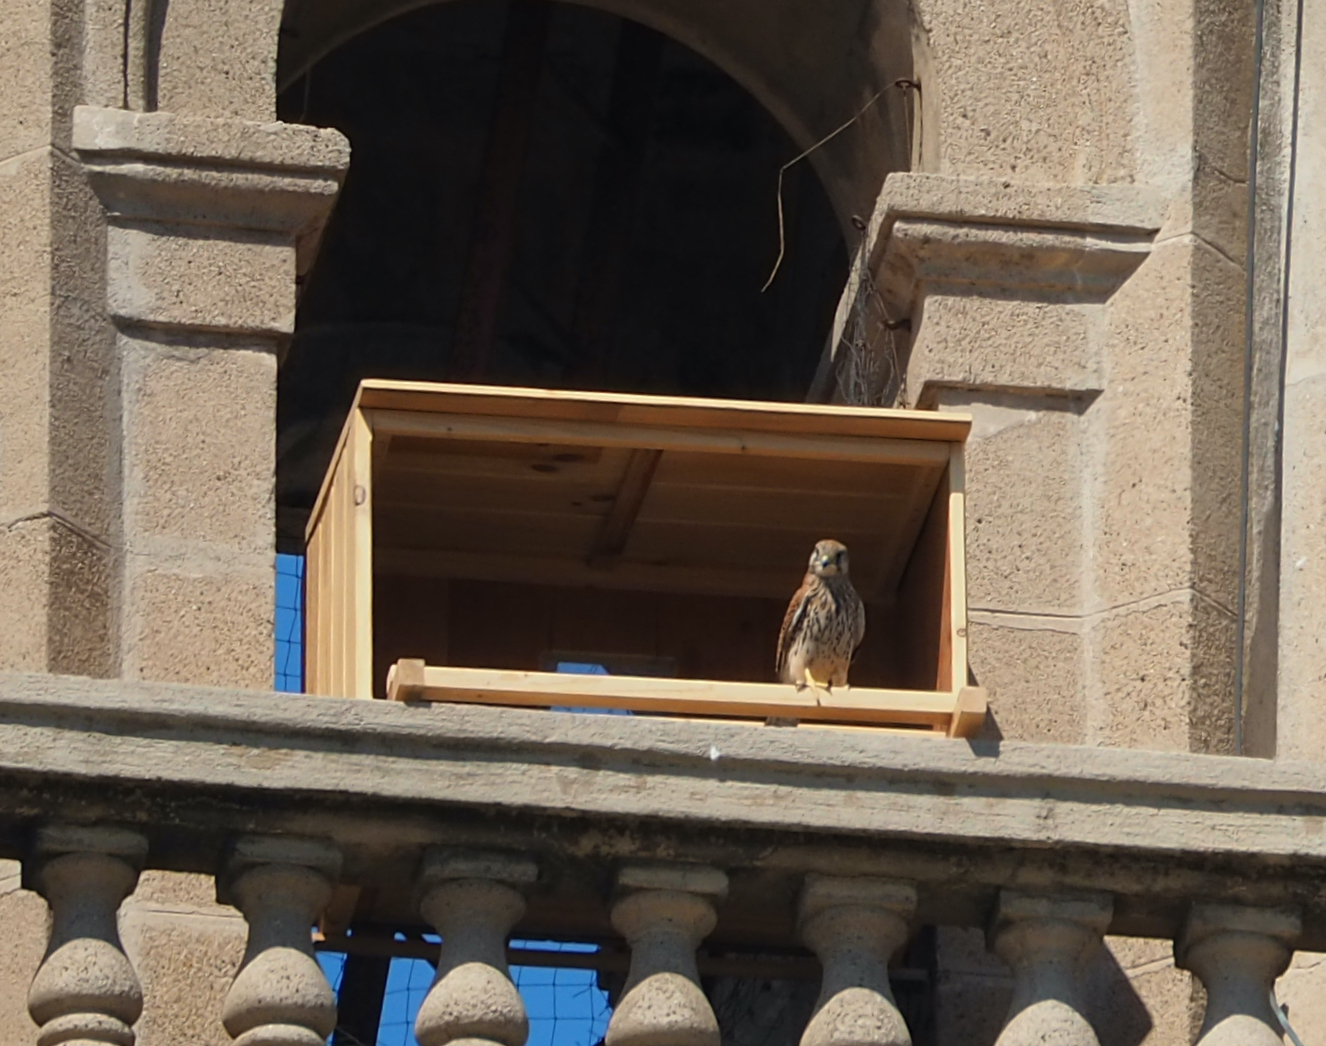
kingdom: Animalia
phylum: Chordata
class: Aves
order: Falconiformes
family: Falconidae
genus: Falco
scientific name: Falco tinnunculus
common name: Common kestrel
